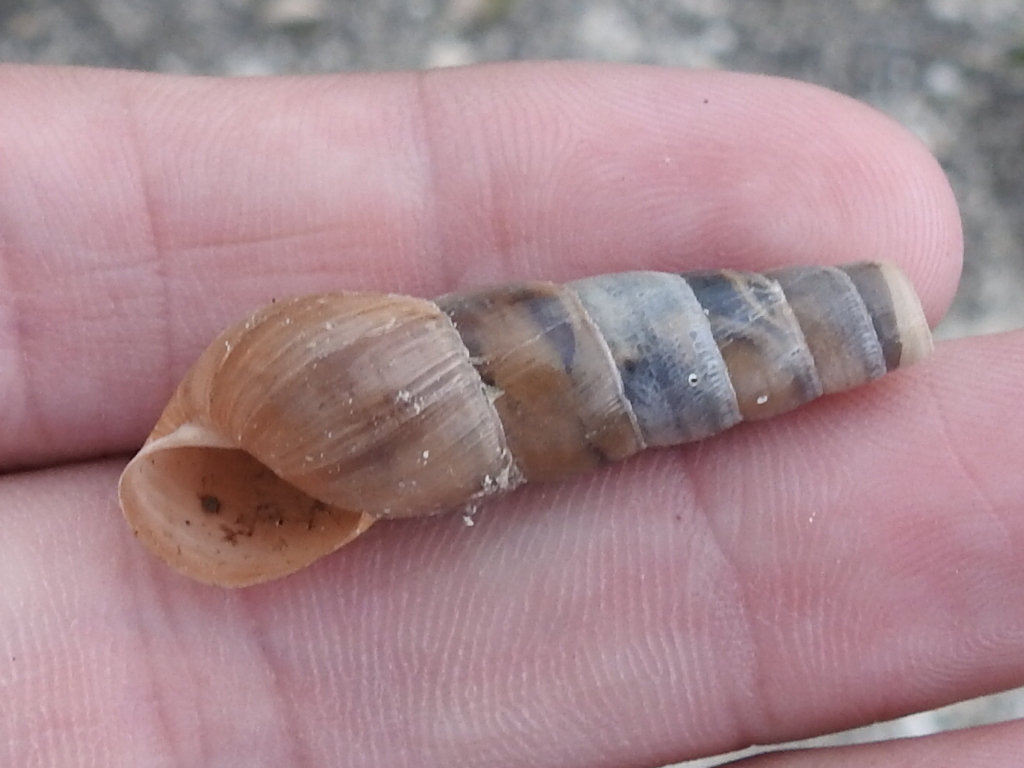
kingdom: Animalia
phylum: Mollusca
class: Gastropoda
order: Stylommatophora
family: Achatinidae
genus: Rumina
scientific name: Rumina decollata
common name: Decollate snail
